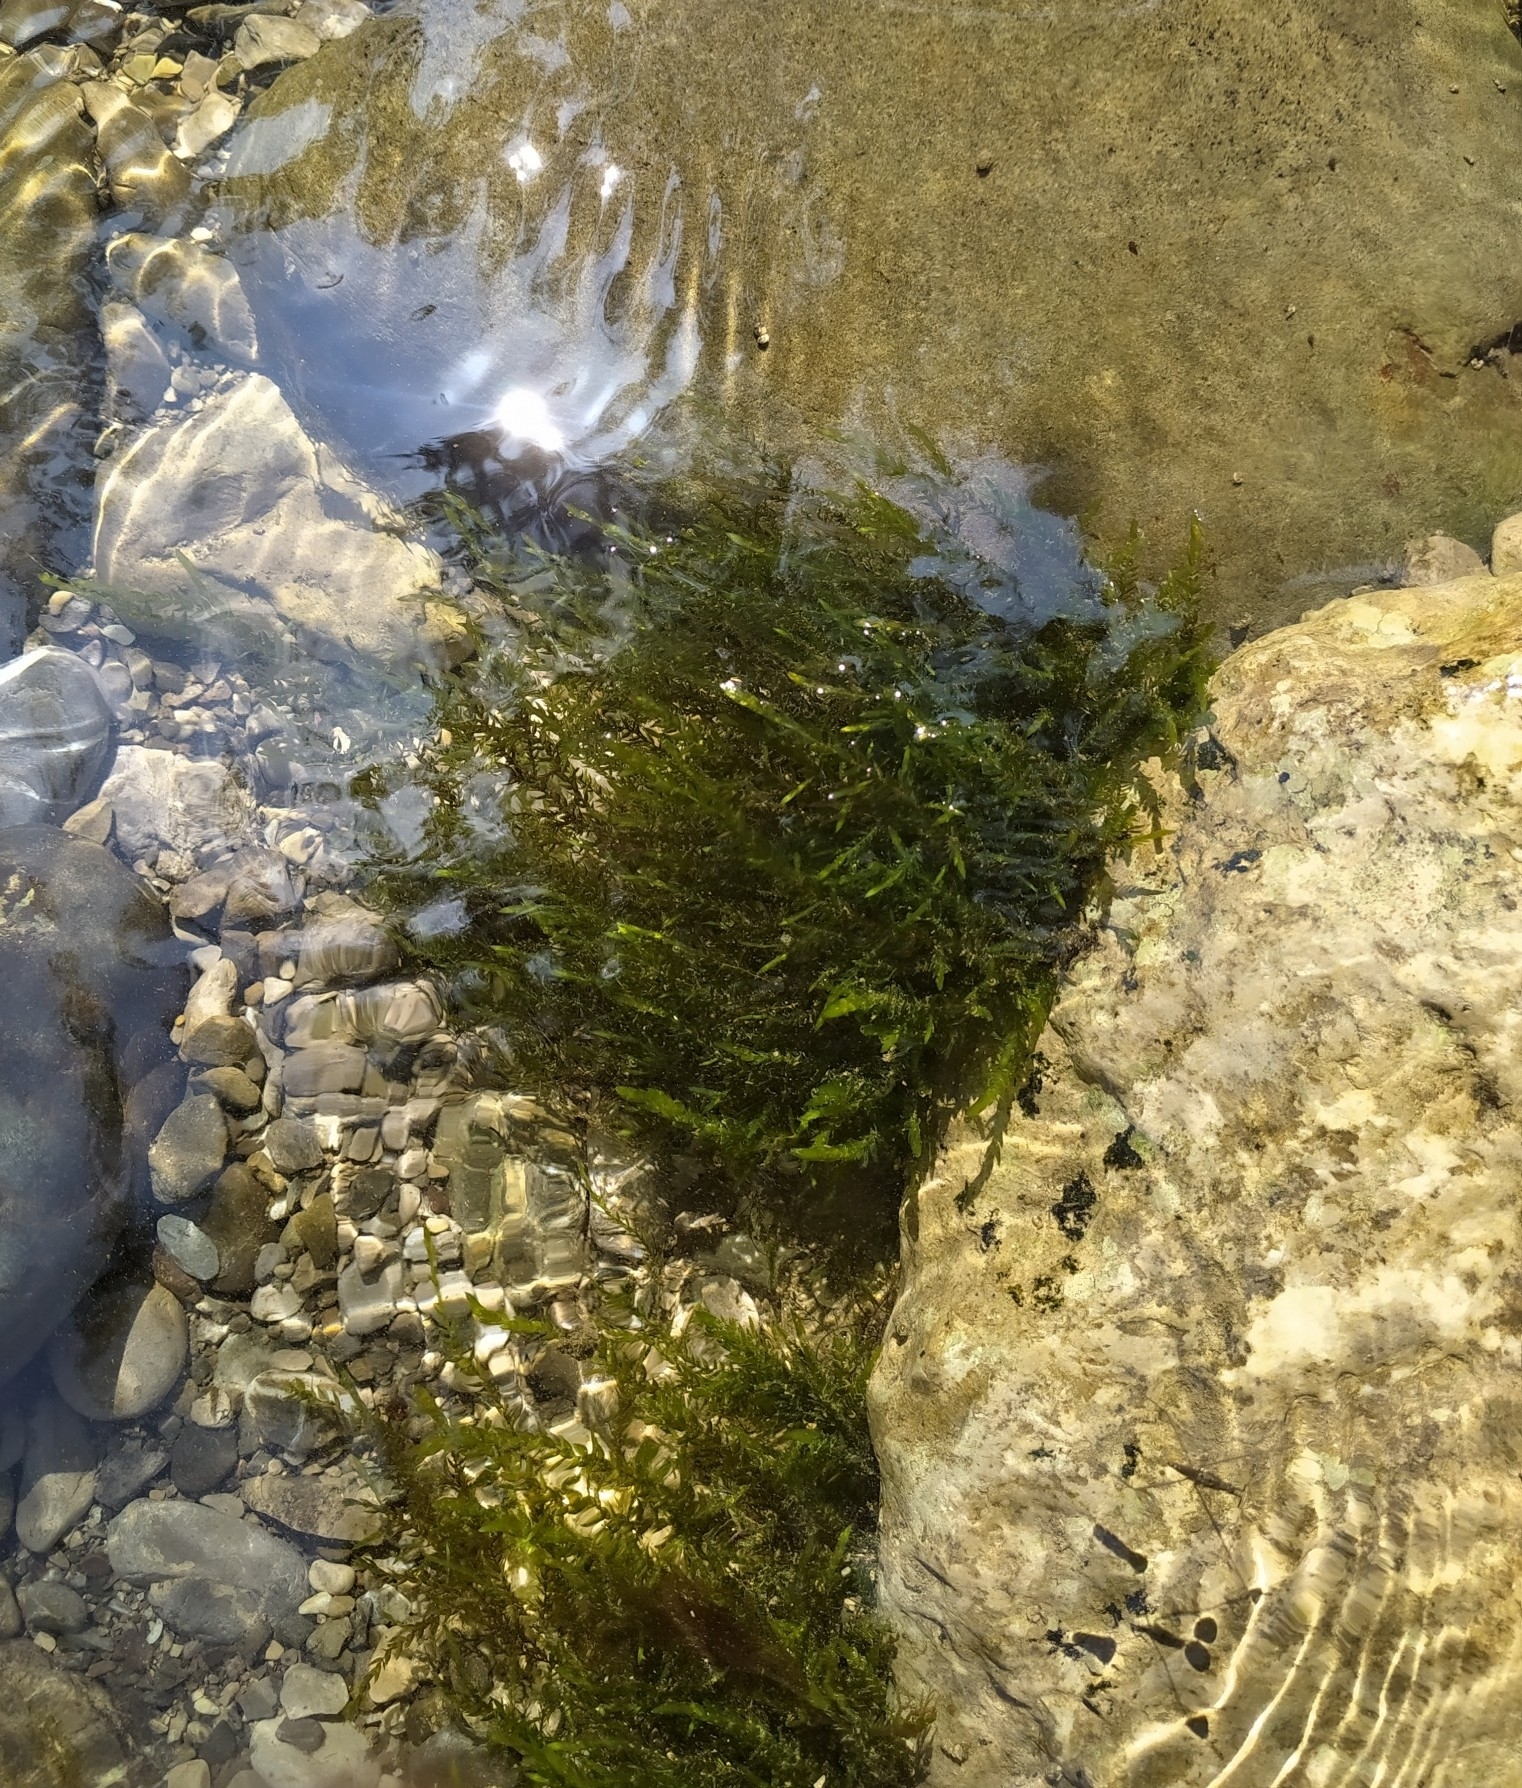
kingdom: Plantae
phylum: Bryophyta
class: Bryopsida
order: Hypnales
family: Fontinalaceae
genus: Fontinalis
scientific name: Fontinalis antipyretica
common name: Greater water-moss
